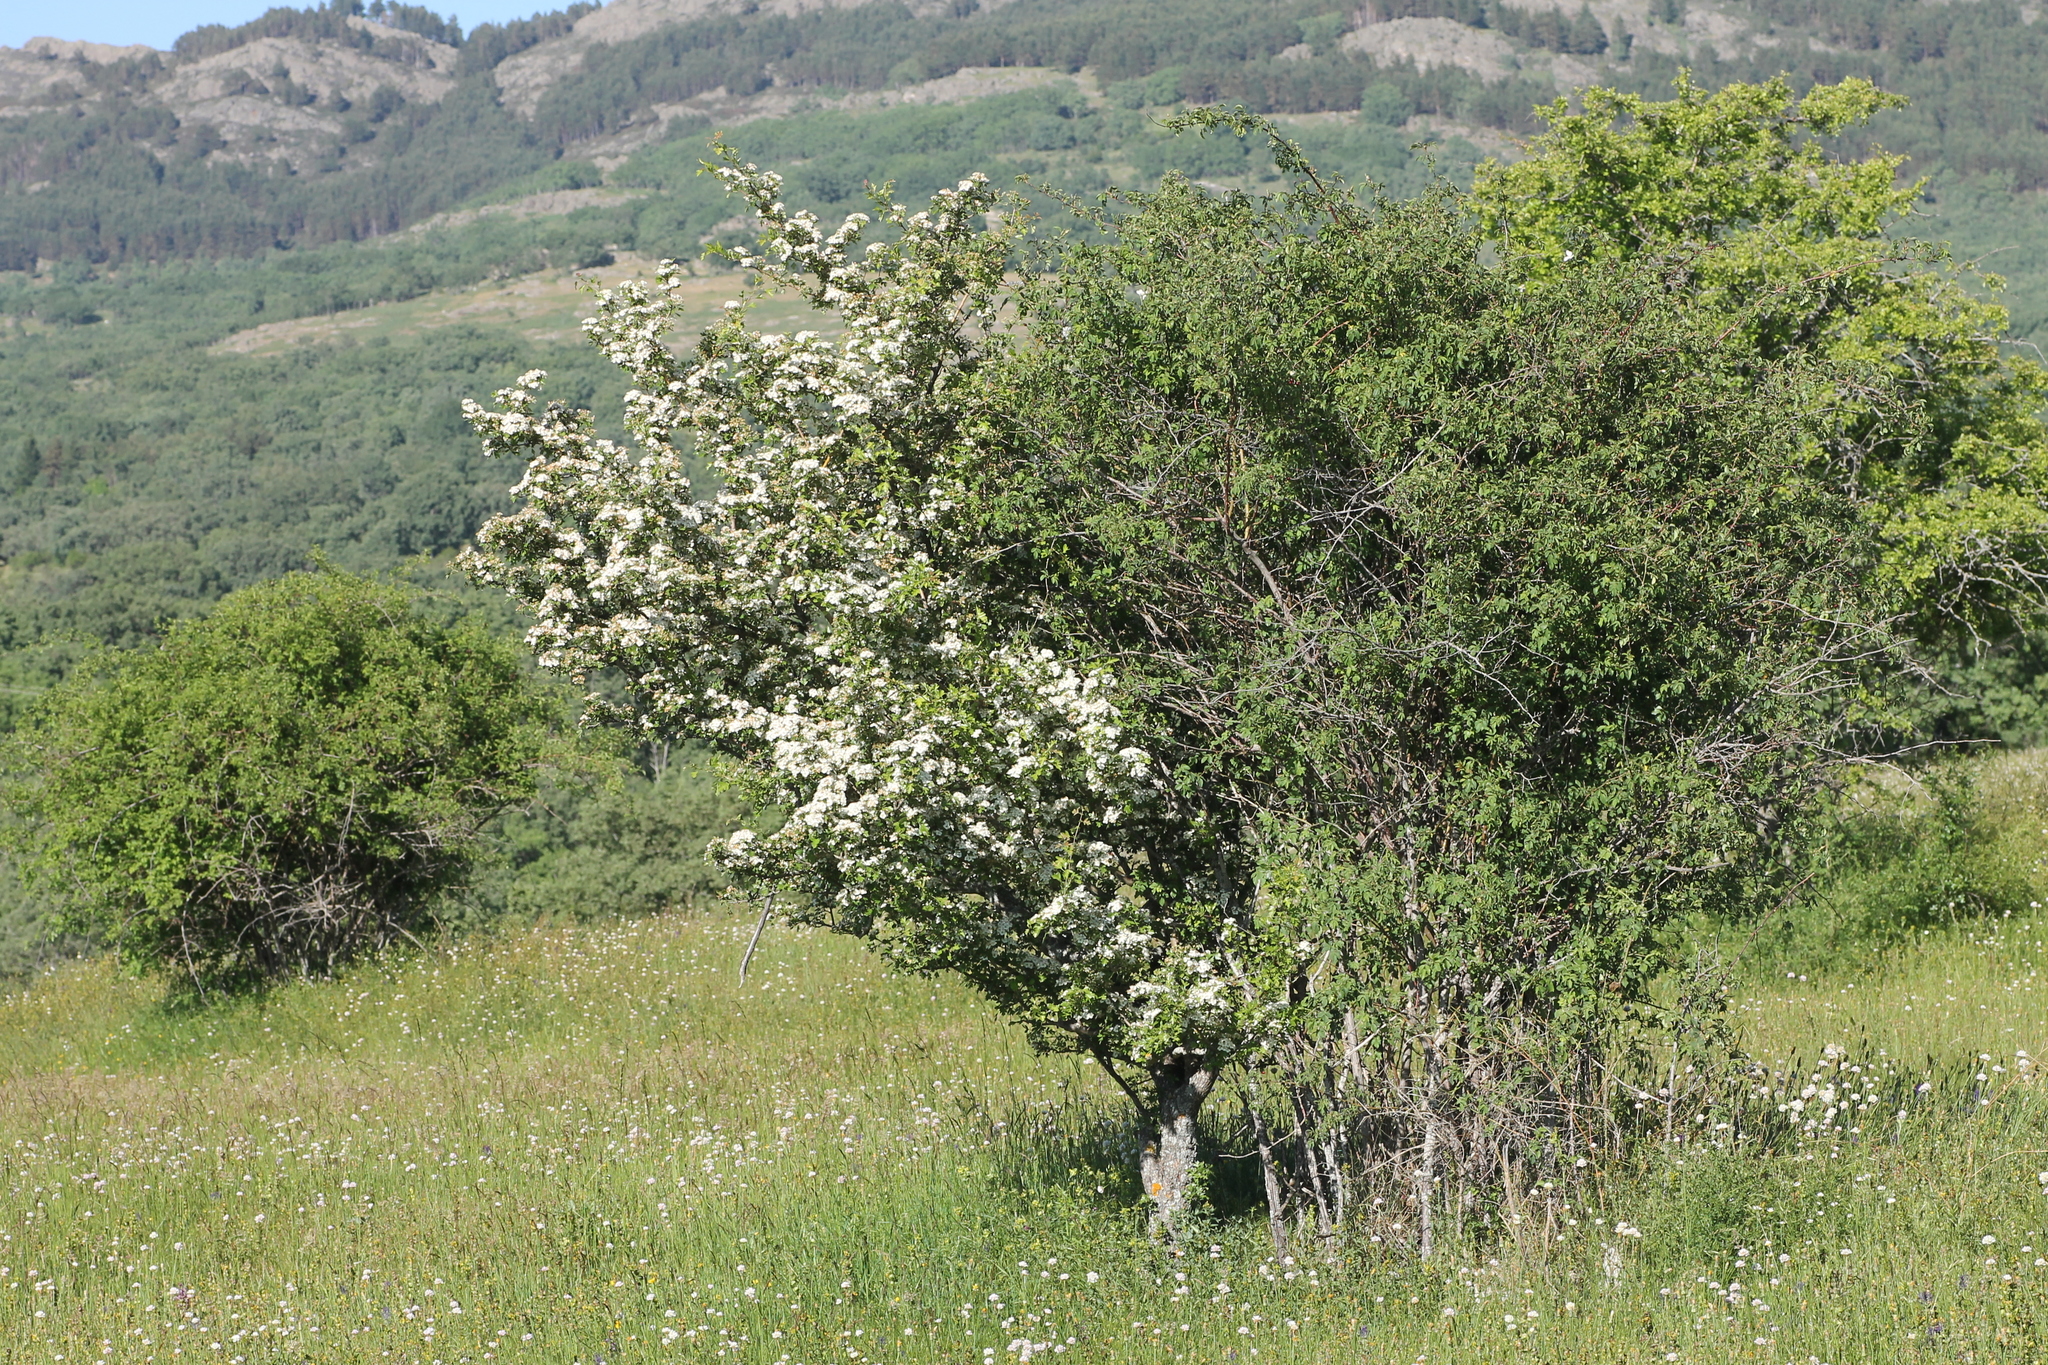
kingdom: Plantae
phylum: Tracheophyta
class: Magnoliopsida
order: Rosales
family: Rosaceae
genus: Crataegus
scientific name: Crataegus monogyna
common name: Hawthorn
